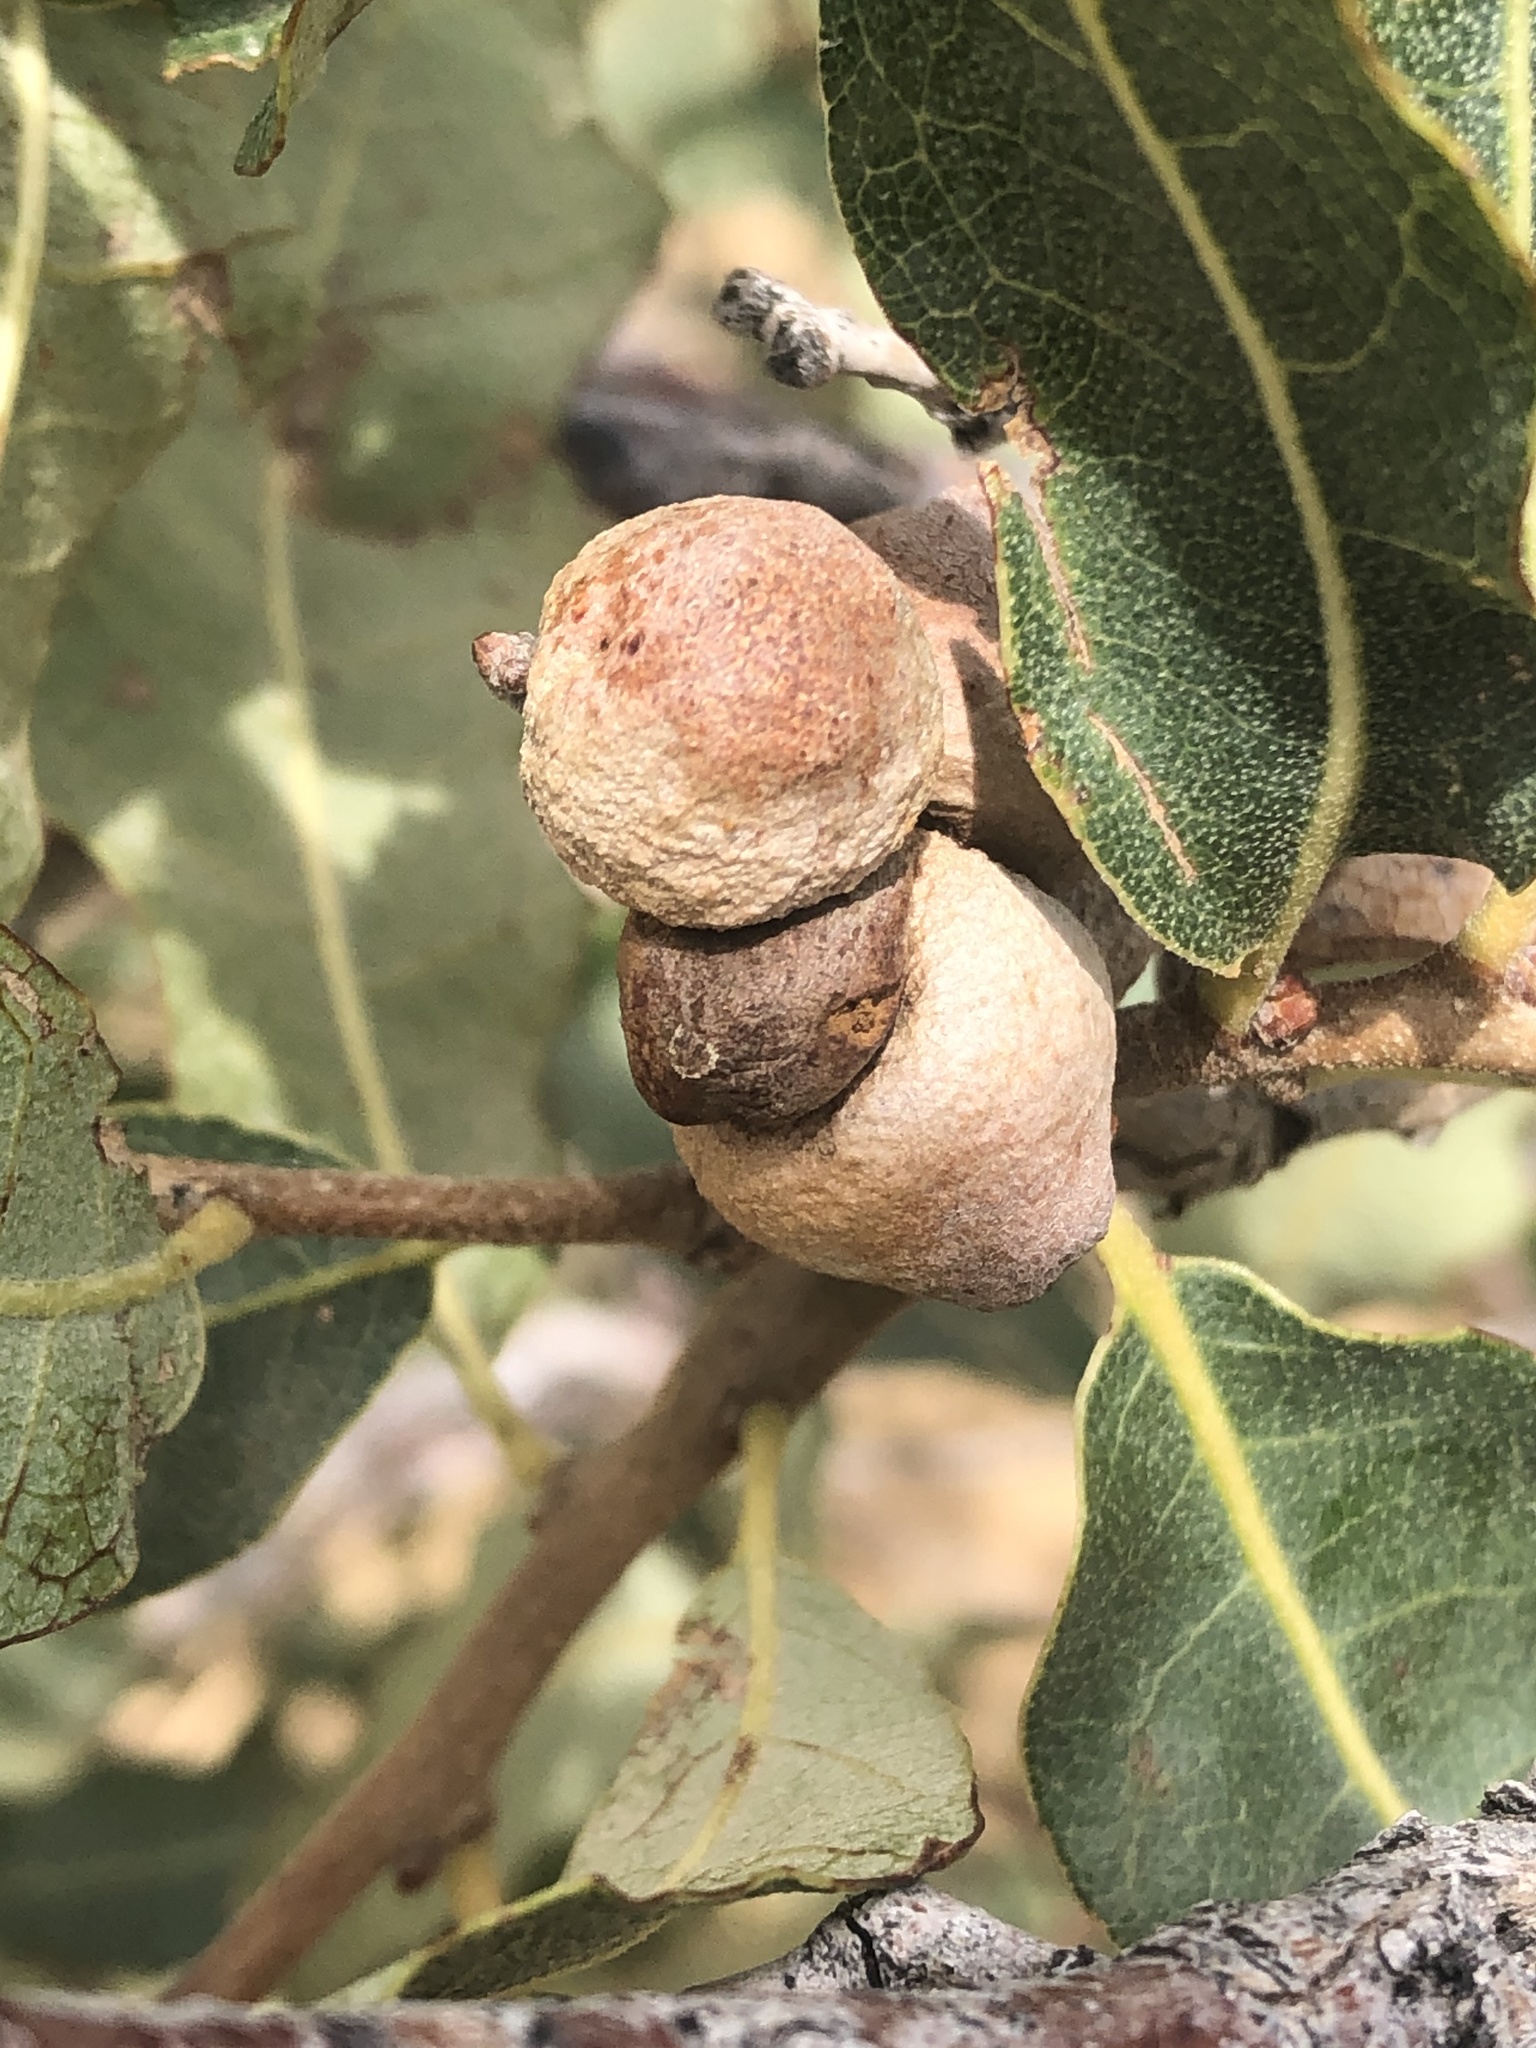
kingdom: Animalia
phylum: Arthropoda
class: Insecta
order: Hymenoptera
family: Cynipidae
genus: Disholcaspis
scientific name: Disholcaspis erugomamma
